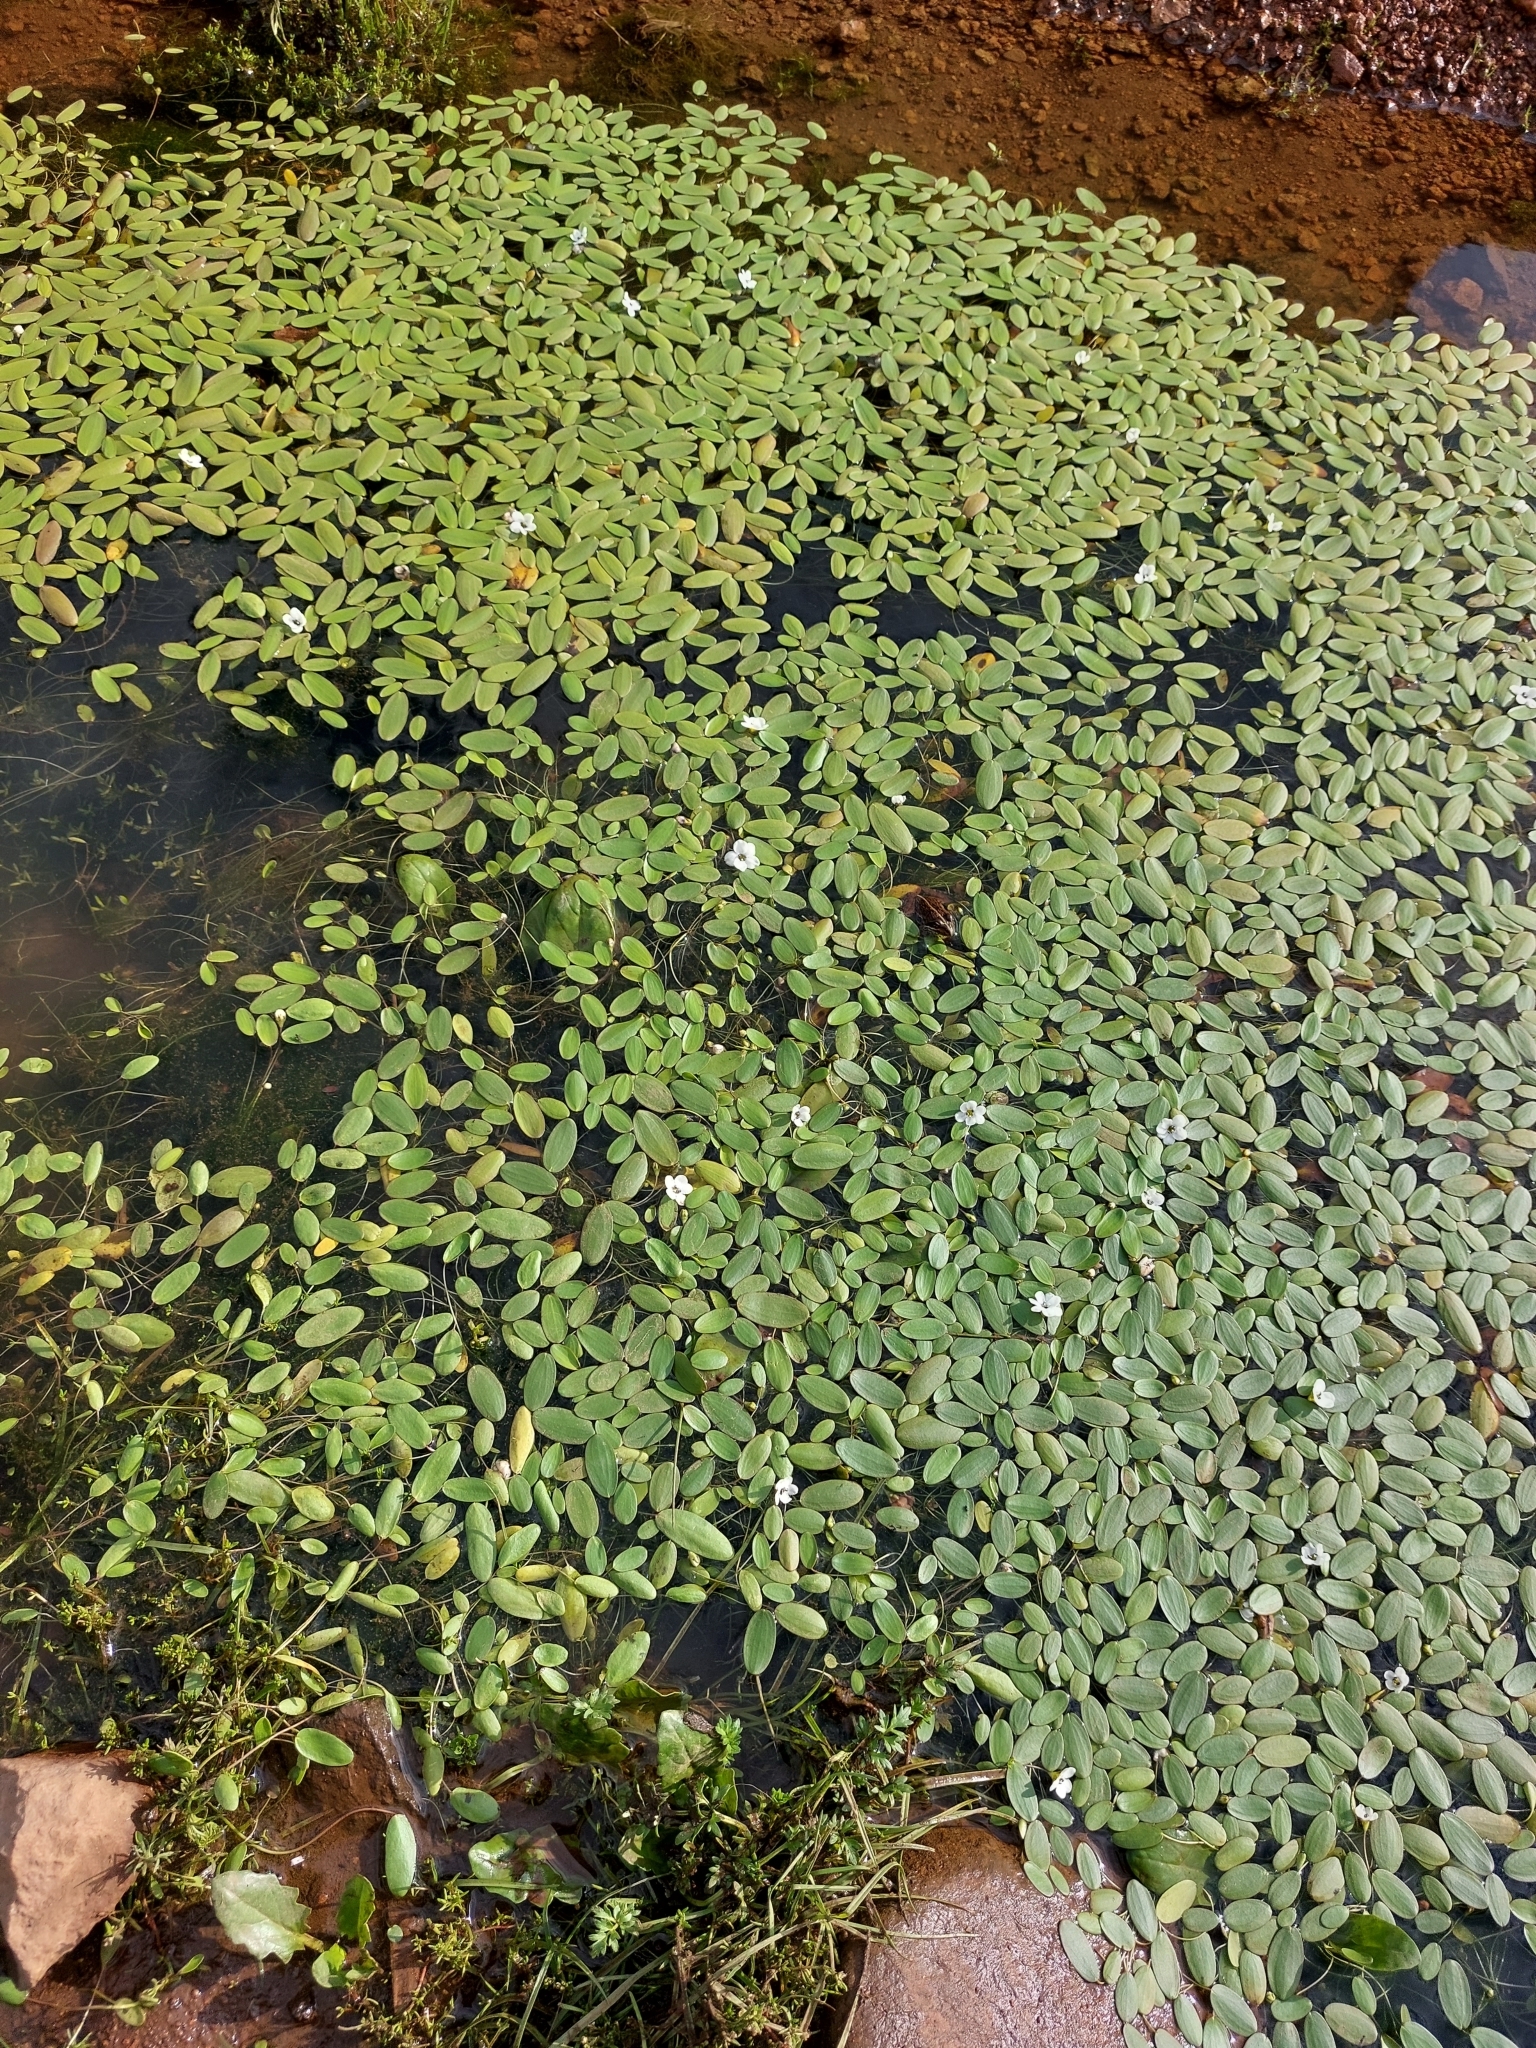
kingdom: Plantae
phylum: Tracheophyta
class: Magnoliopsida
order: Lamiales
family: Scrophulariaceae
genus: Limosella
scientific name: Limosella inflata
